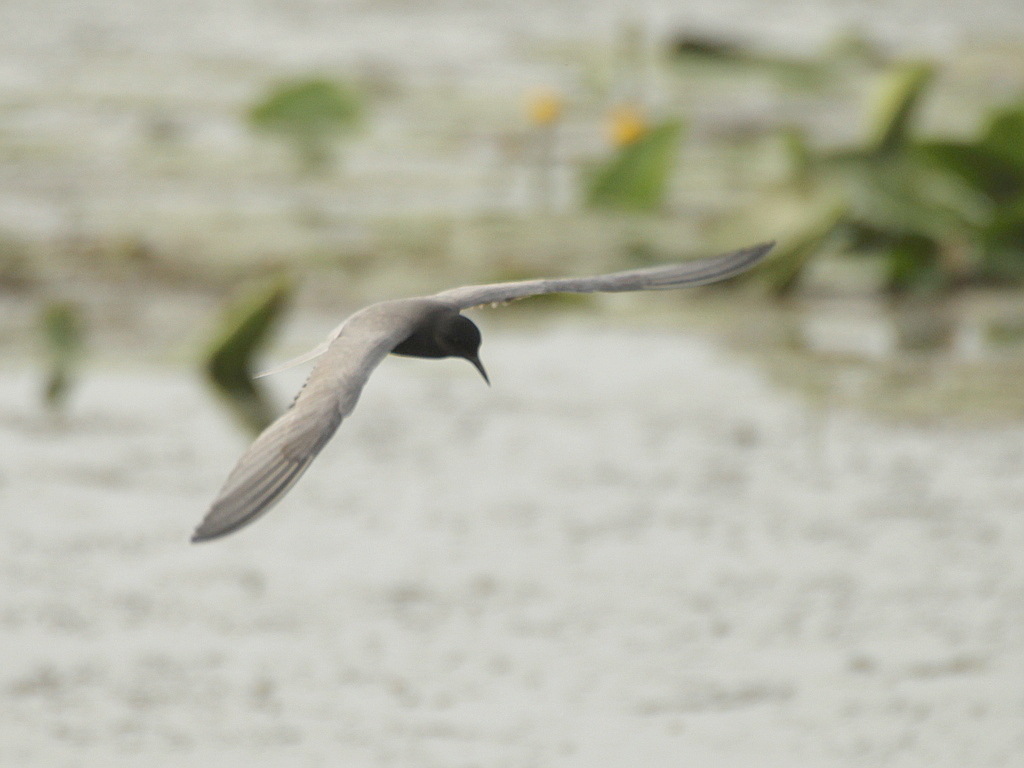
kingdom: Animalia
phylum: Chordata
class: Aves
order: Charadriiformes
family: Laridae
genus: Chlidonias
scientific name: Chlidonias niger
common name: Black tern
